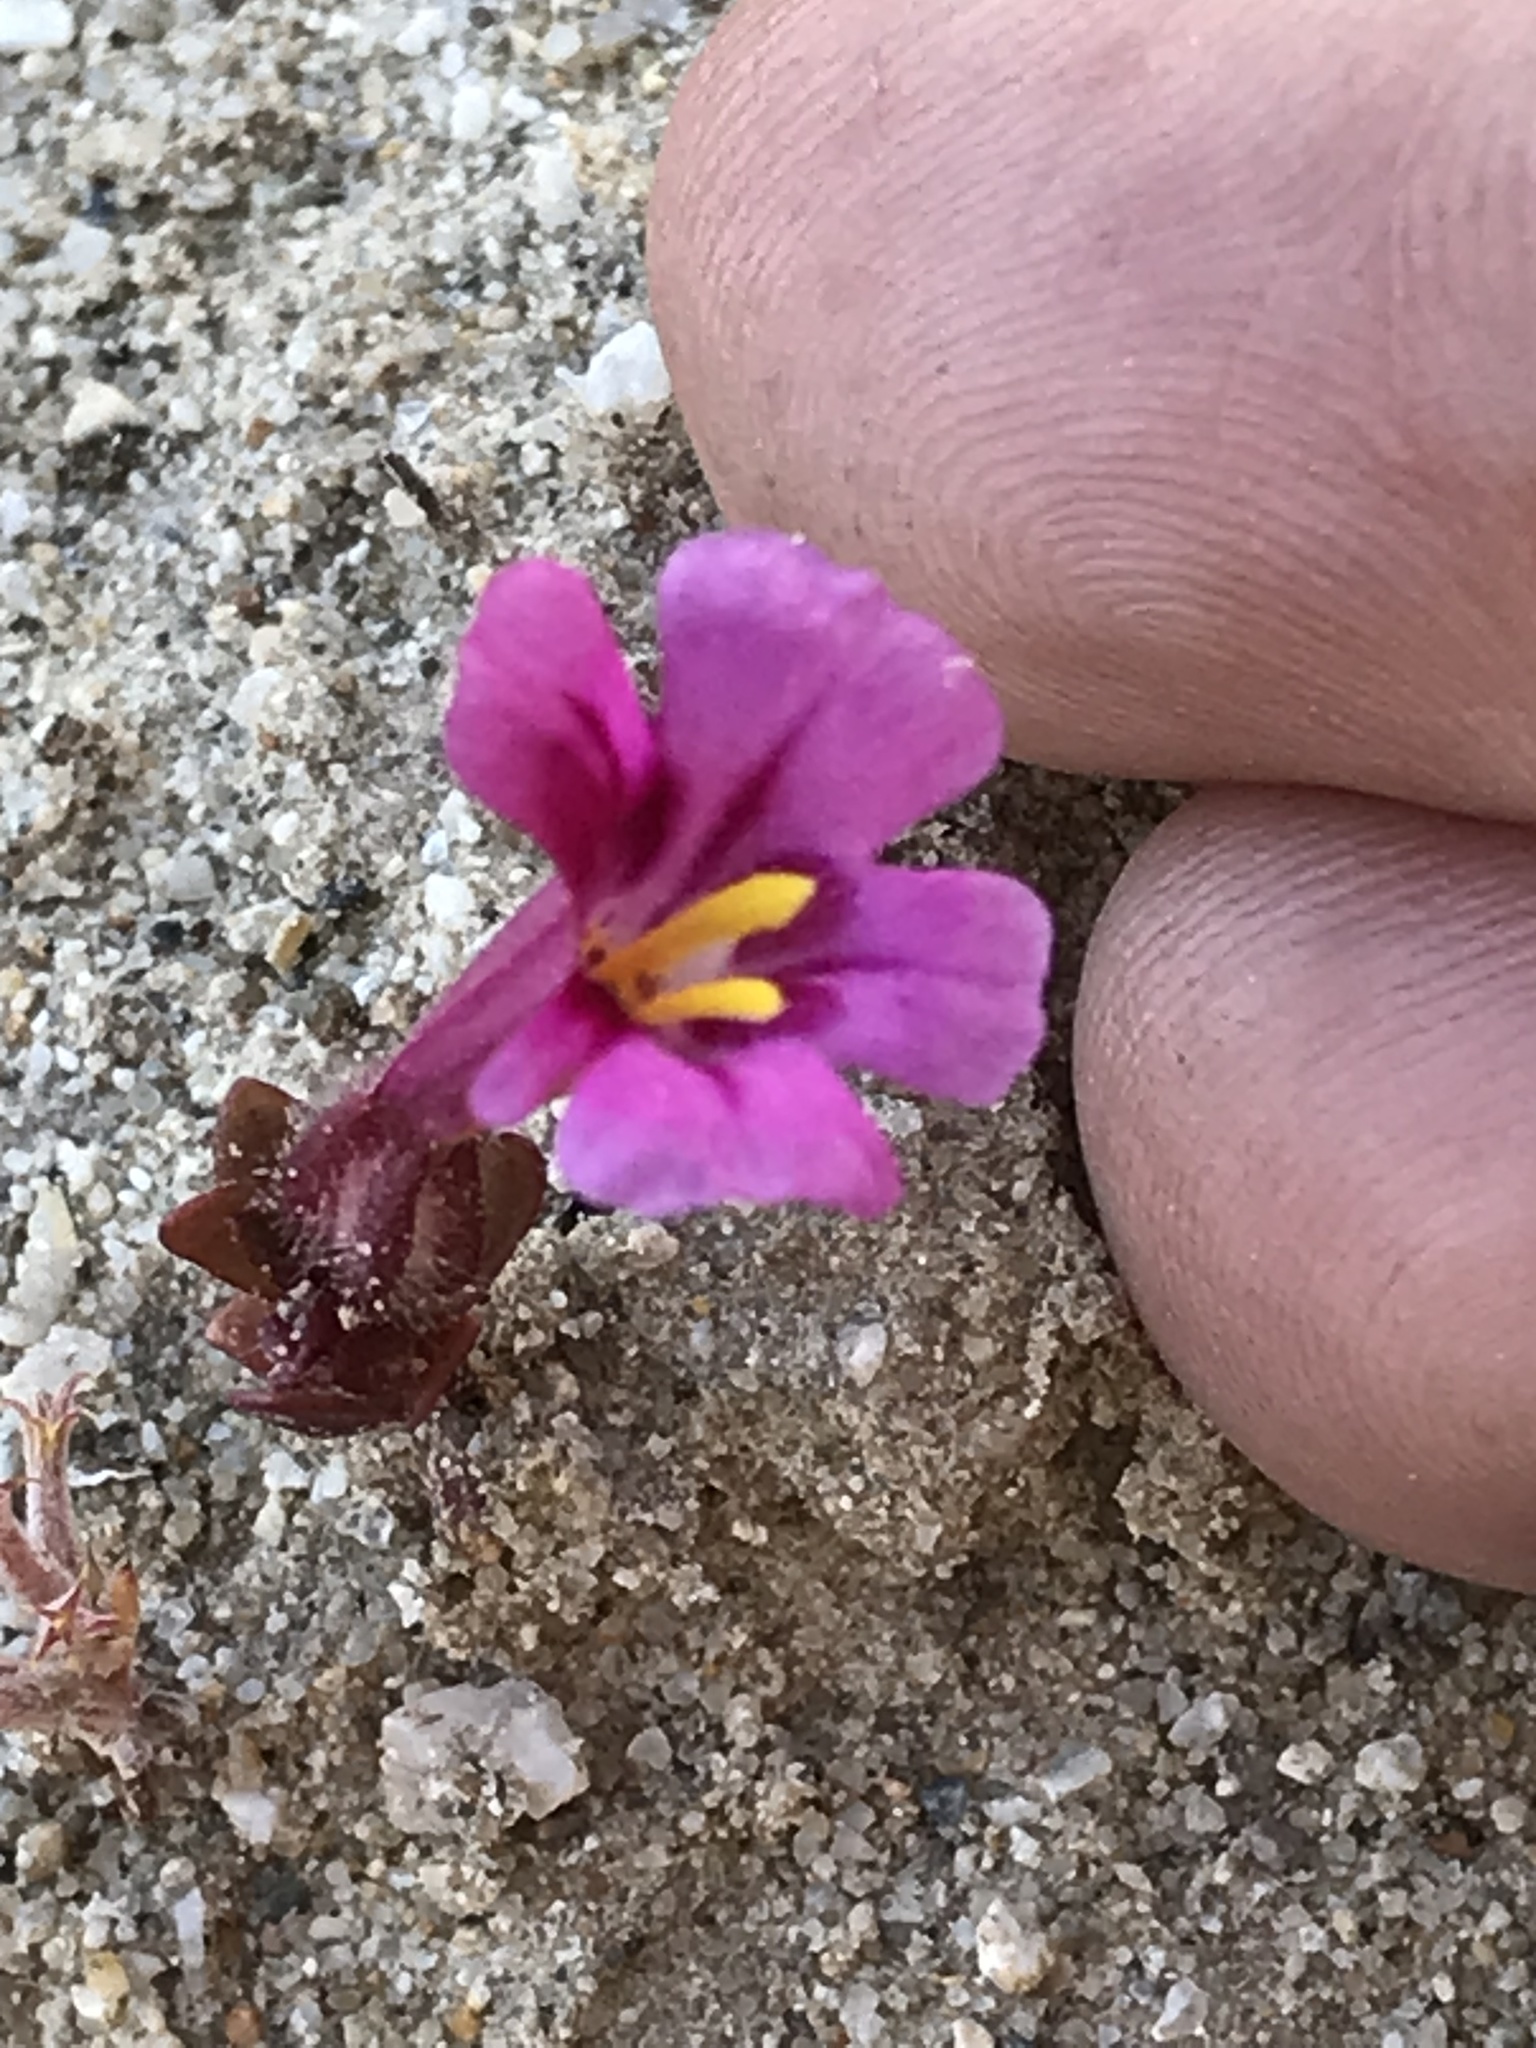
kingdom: Plantae
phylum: Tracheophyta
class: Magnoliopsida
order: Lamiales
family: Phrymaceae
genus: Diplacus
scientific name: Diplacus fremontii
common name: Fremont's monkey-flower
